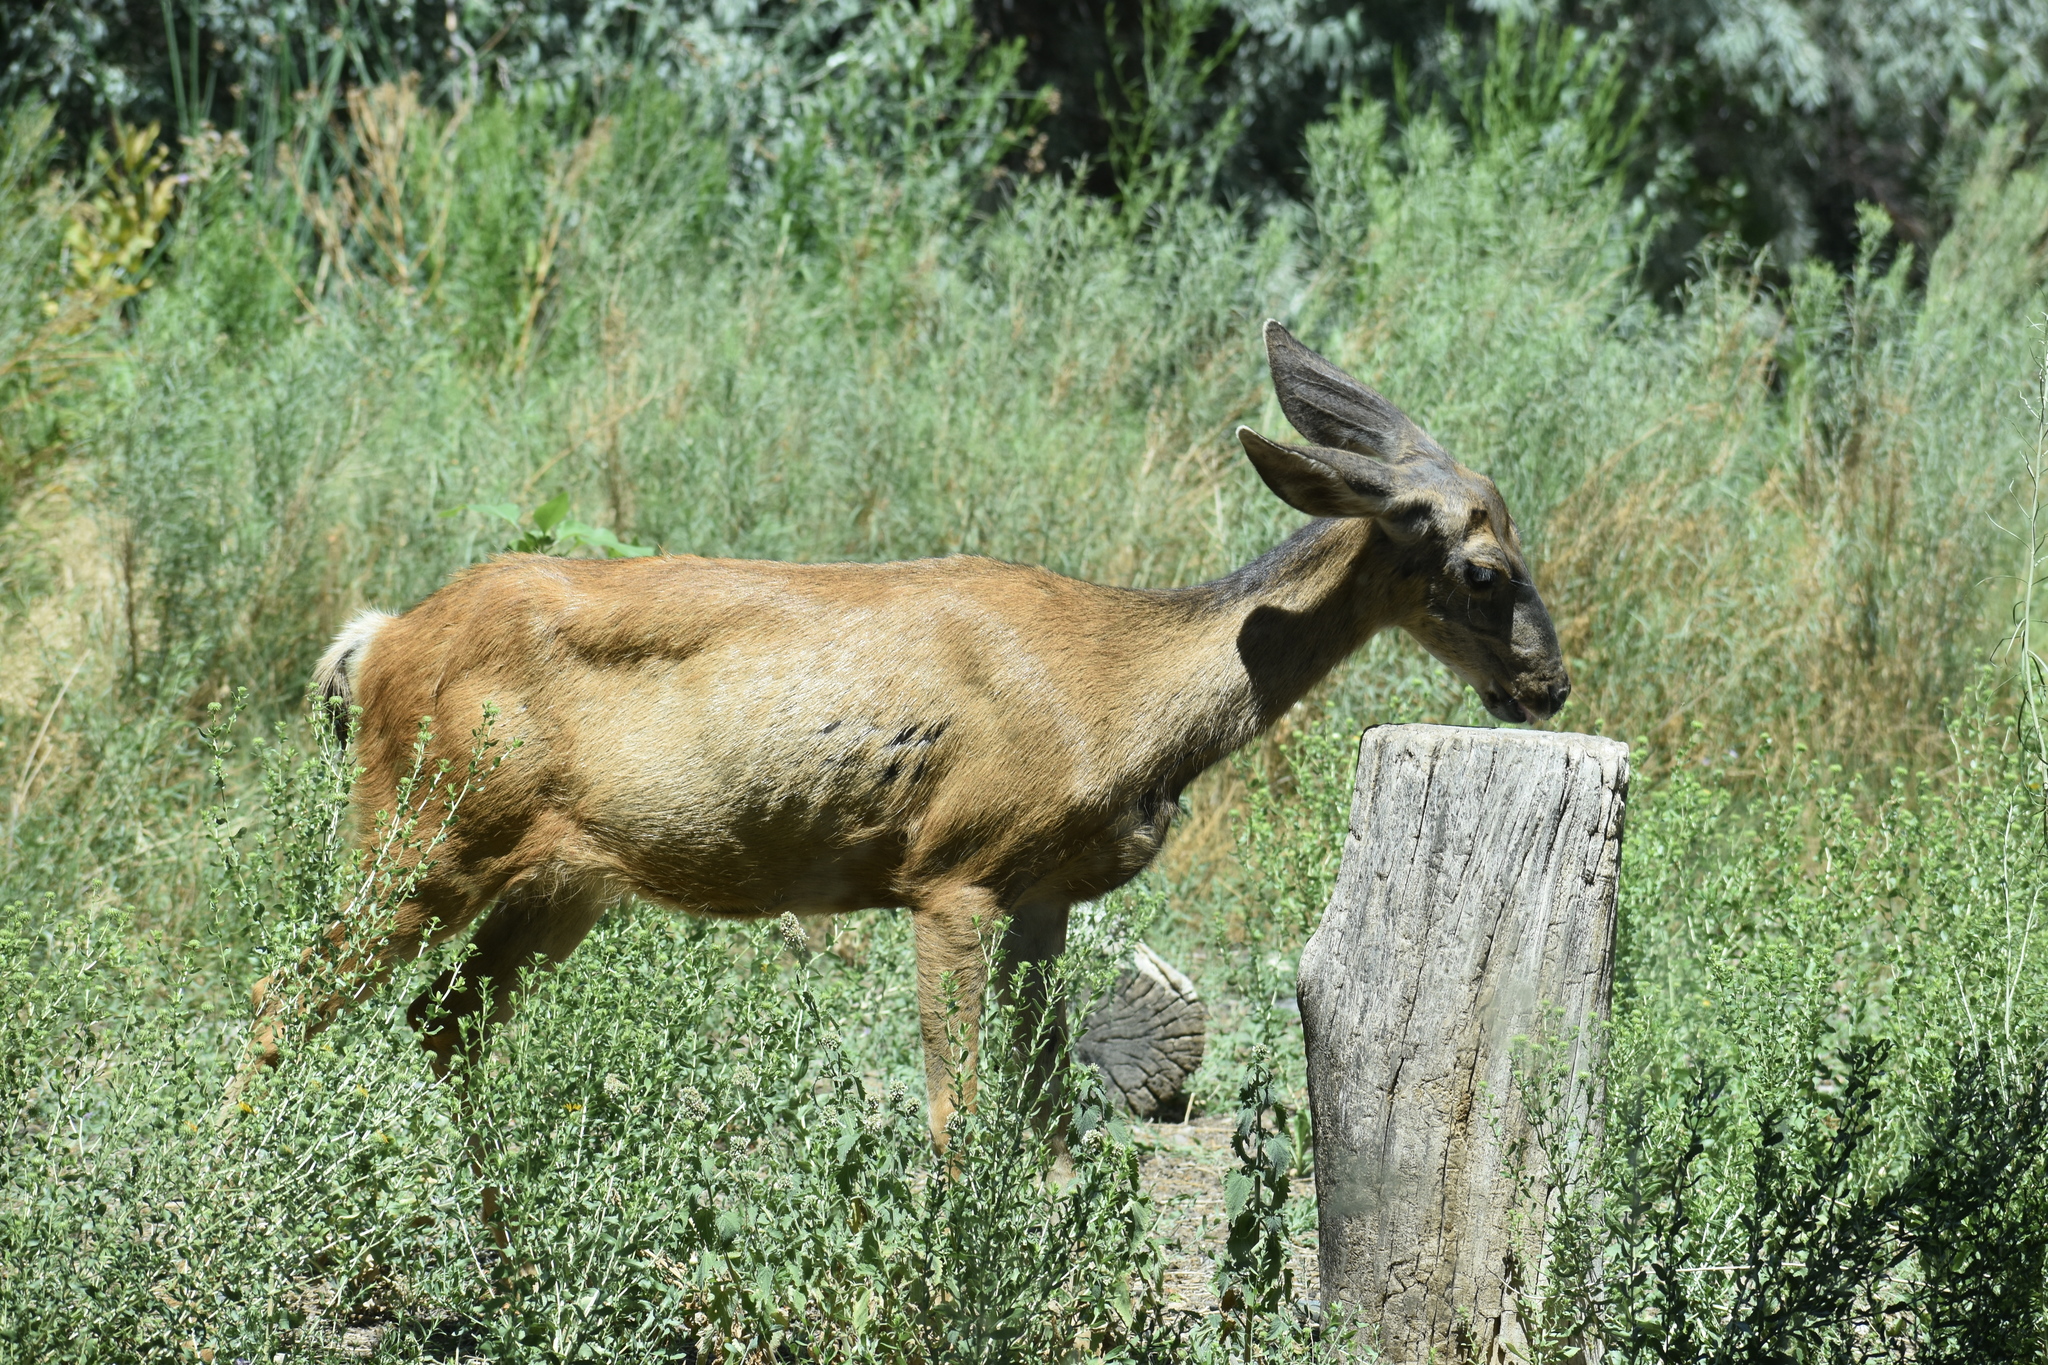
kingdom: Animalia
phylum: Chordata
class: Mammalia
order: Artiodactyla
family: Cervidae
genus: Odocoileus
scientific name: Odocoileus hemionus
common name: Mule deer
